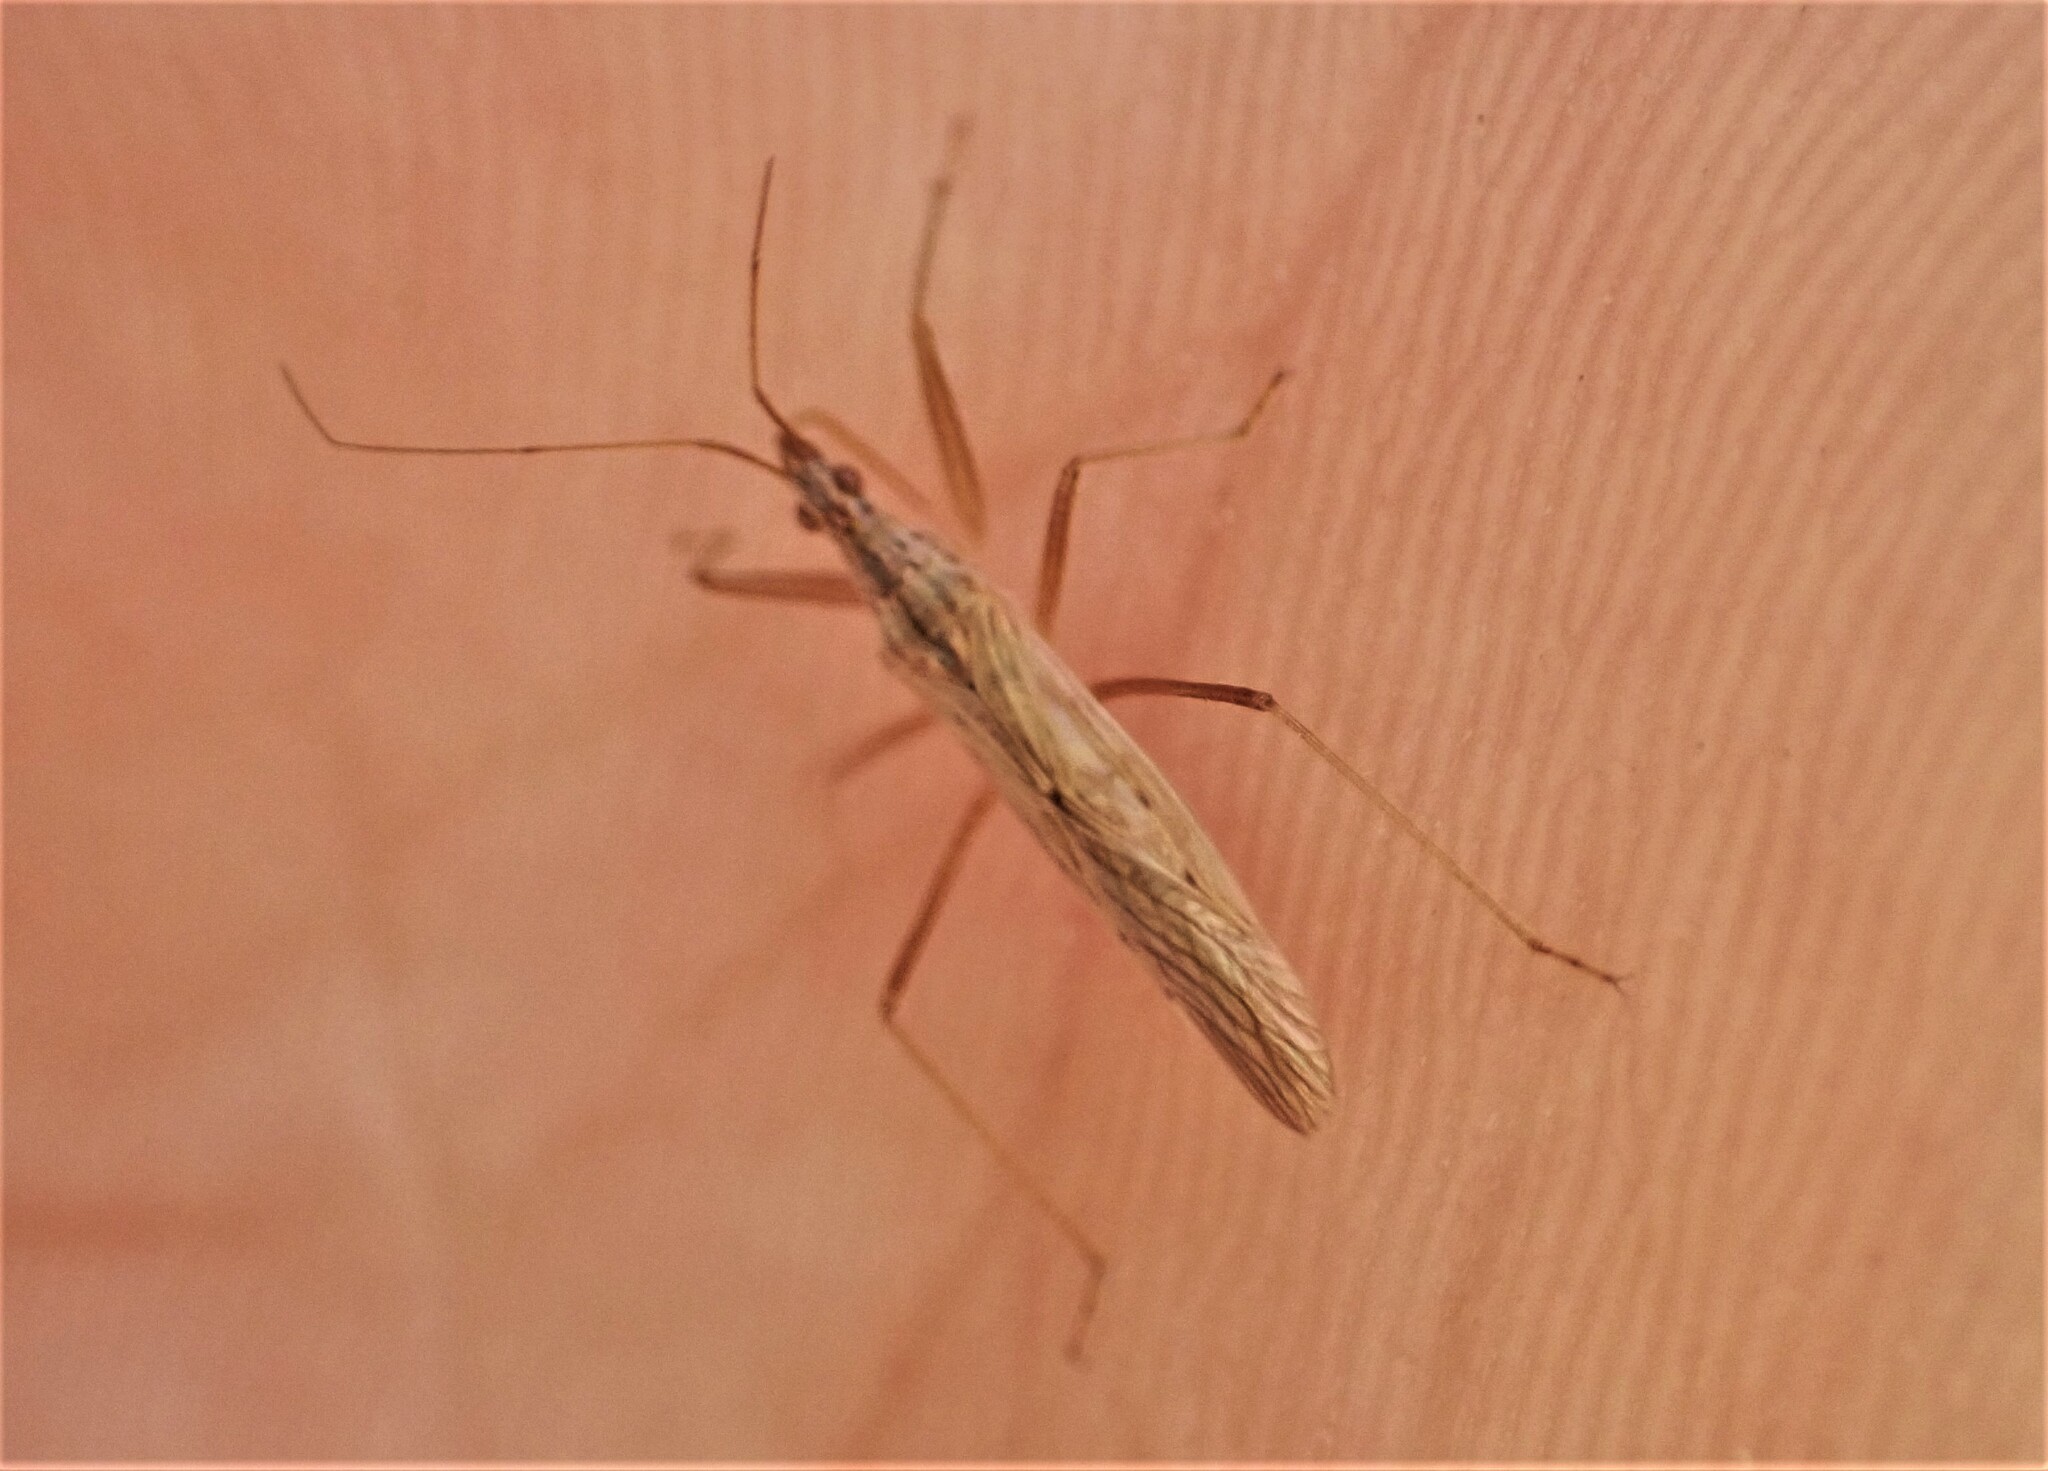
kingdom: Animalia
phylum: Arthropoda
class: Insecta
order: Hemiptera
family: Nabidae
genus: Nabis
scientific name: Nabis kinbergii
